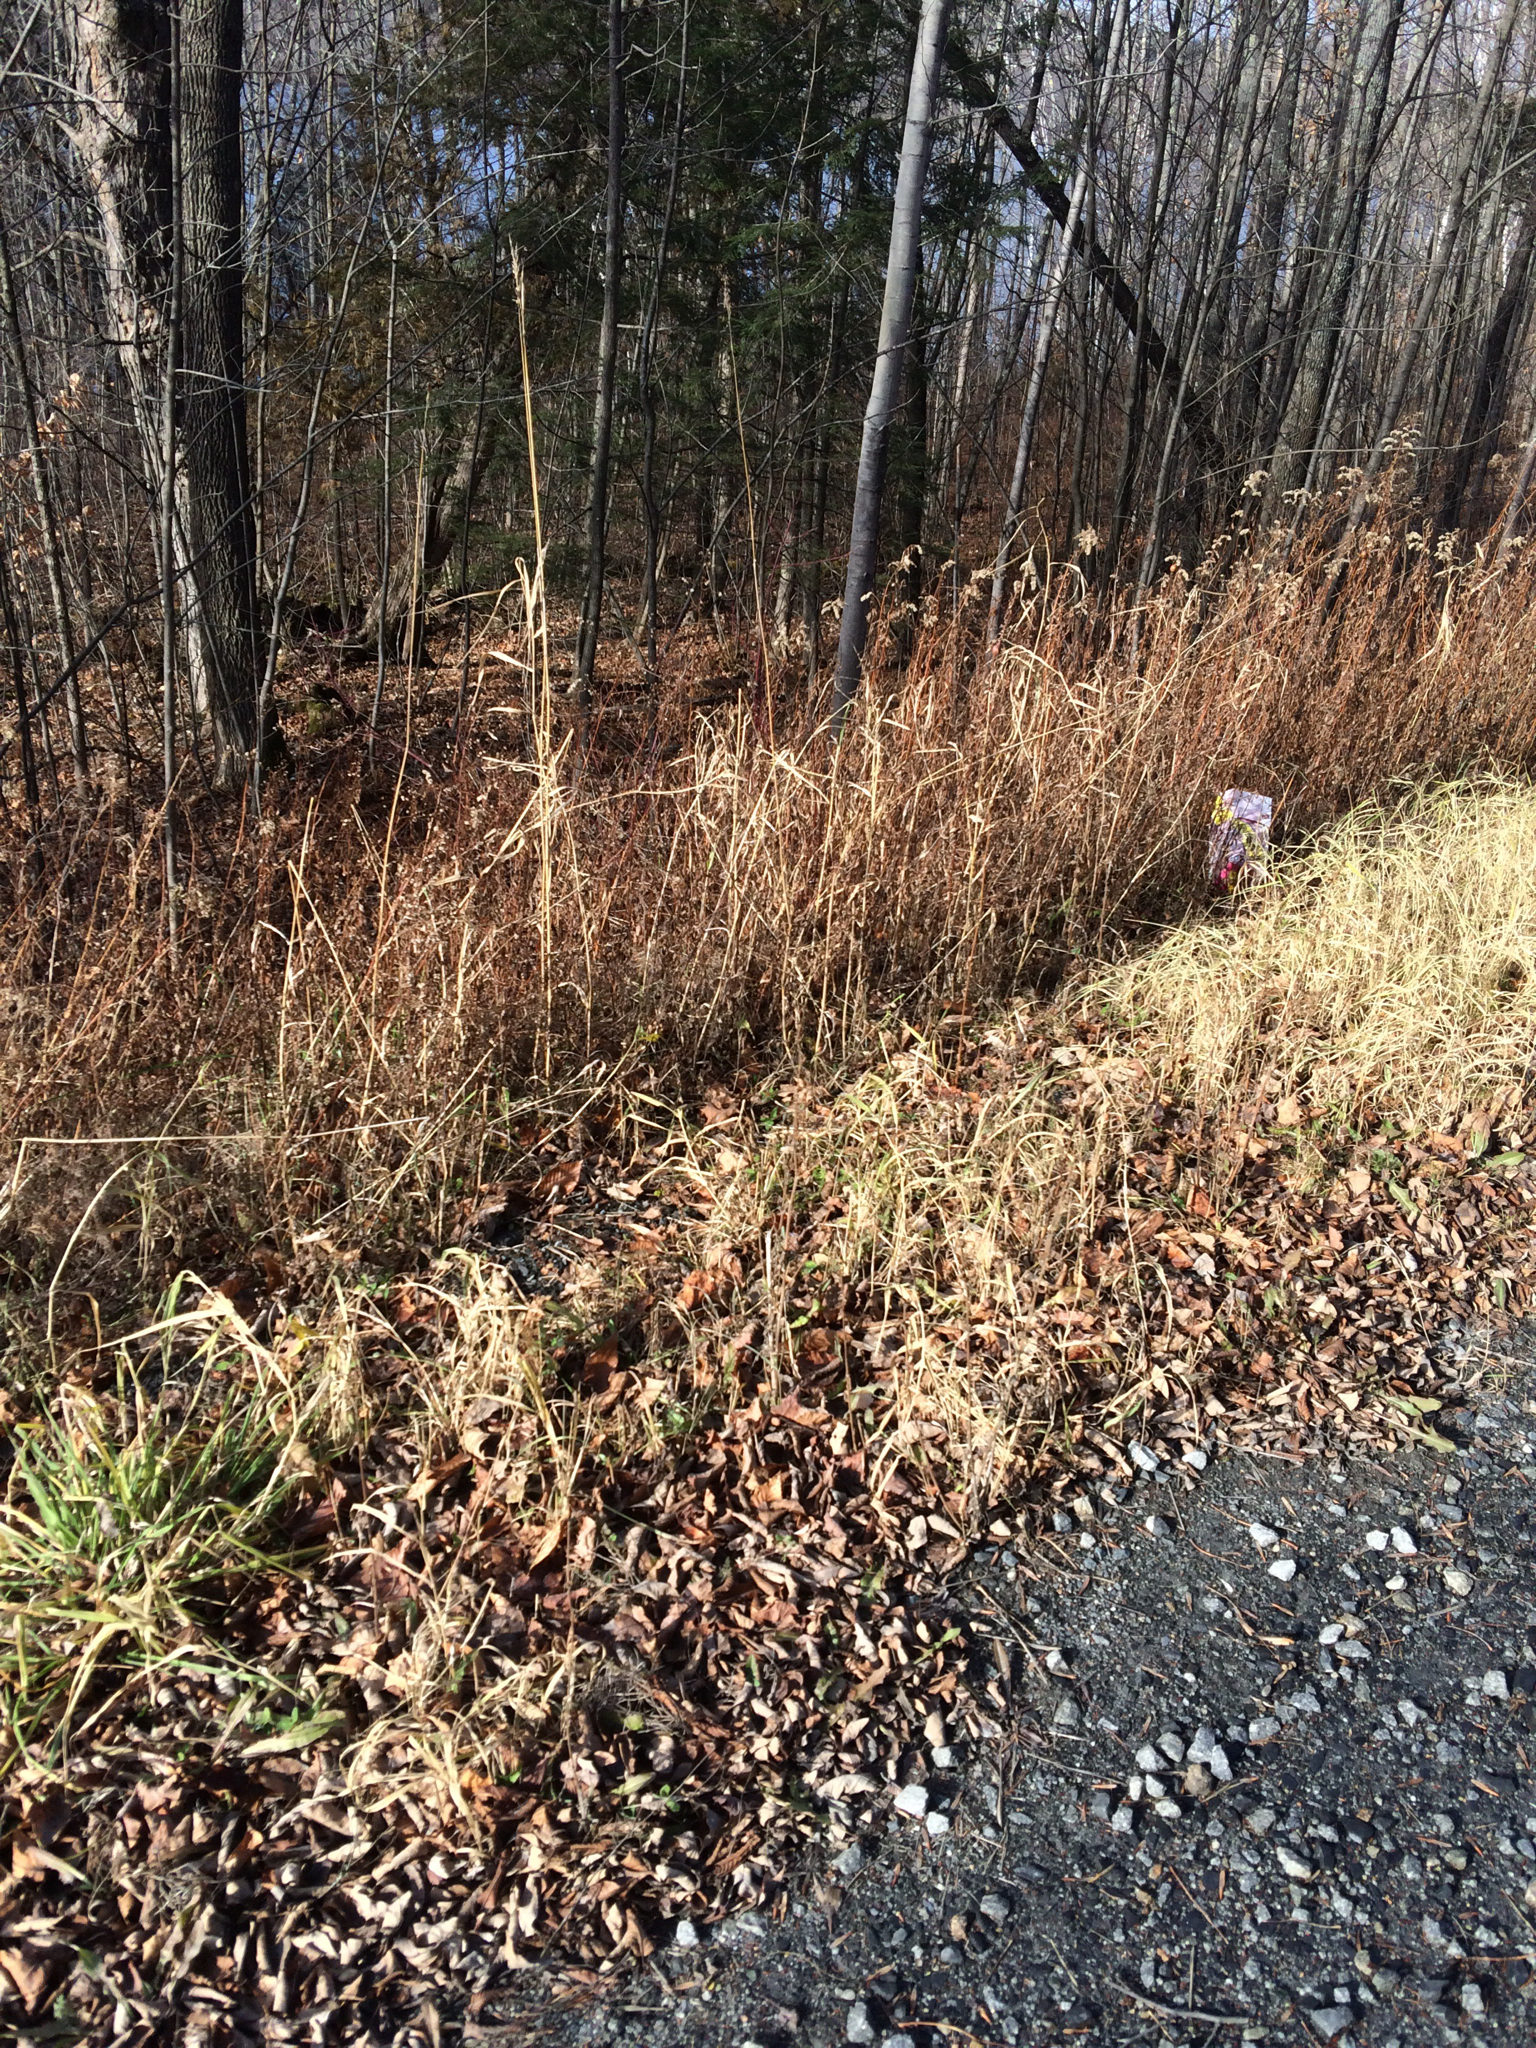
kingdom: Plantae
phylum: Tracheophyta
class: Liliopsida
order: Poales
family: Poaceae
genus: Phalaris
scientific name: Phalaris arundinacea
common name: Reed canary-grass
